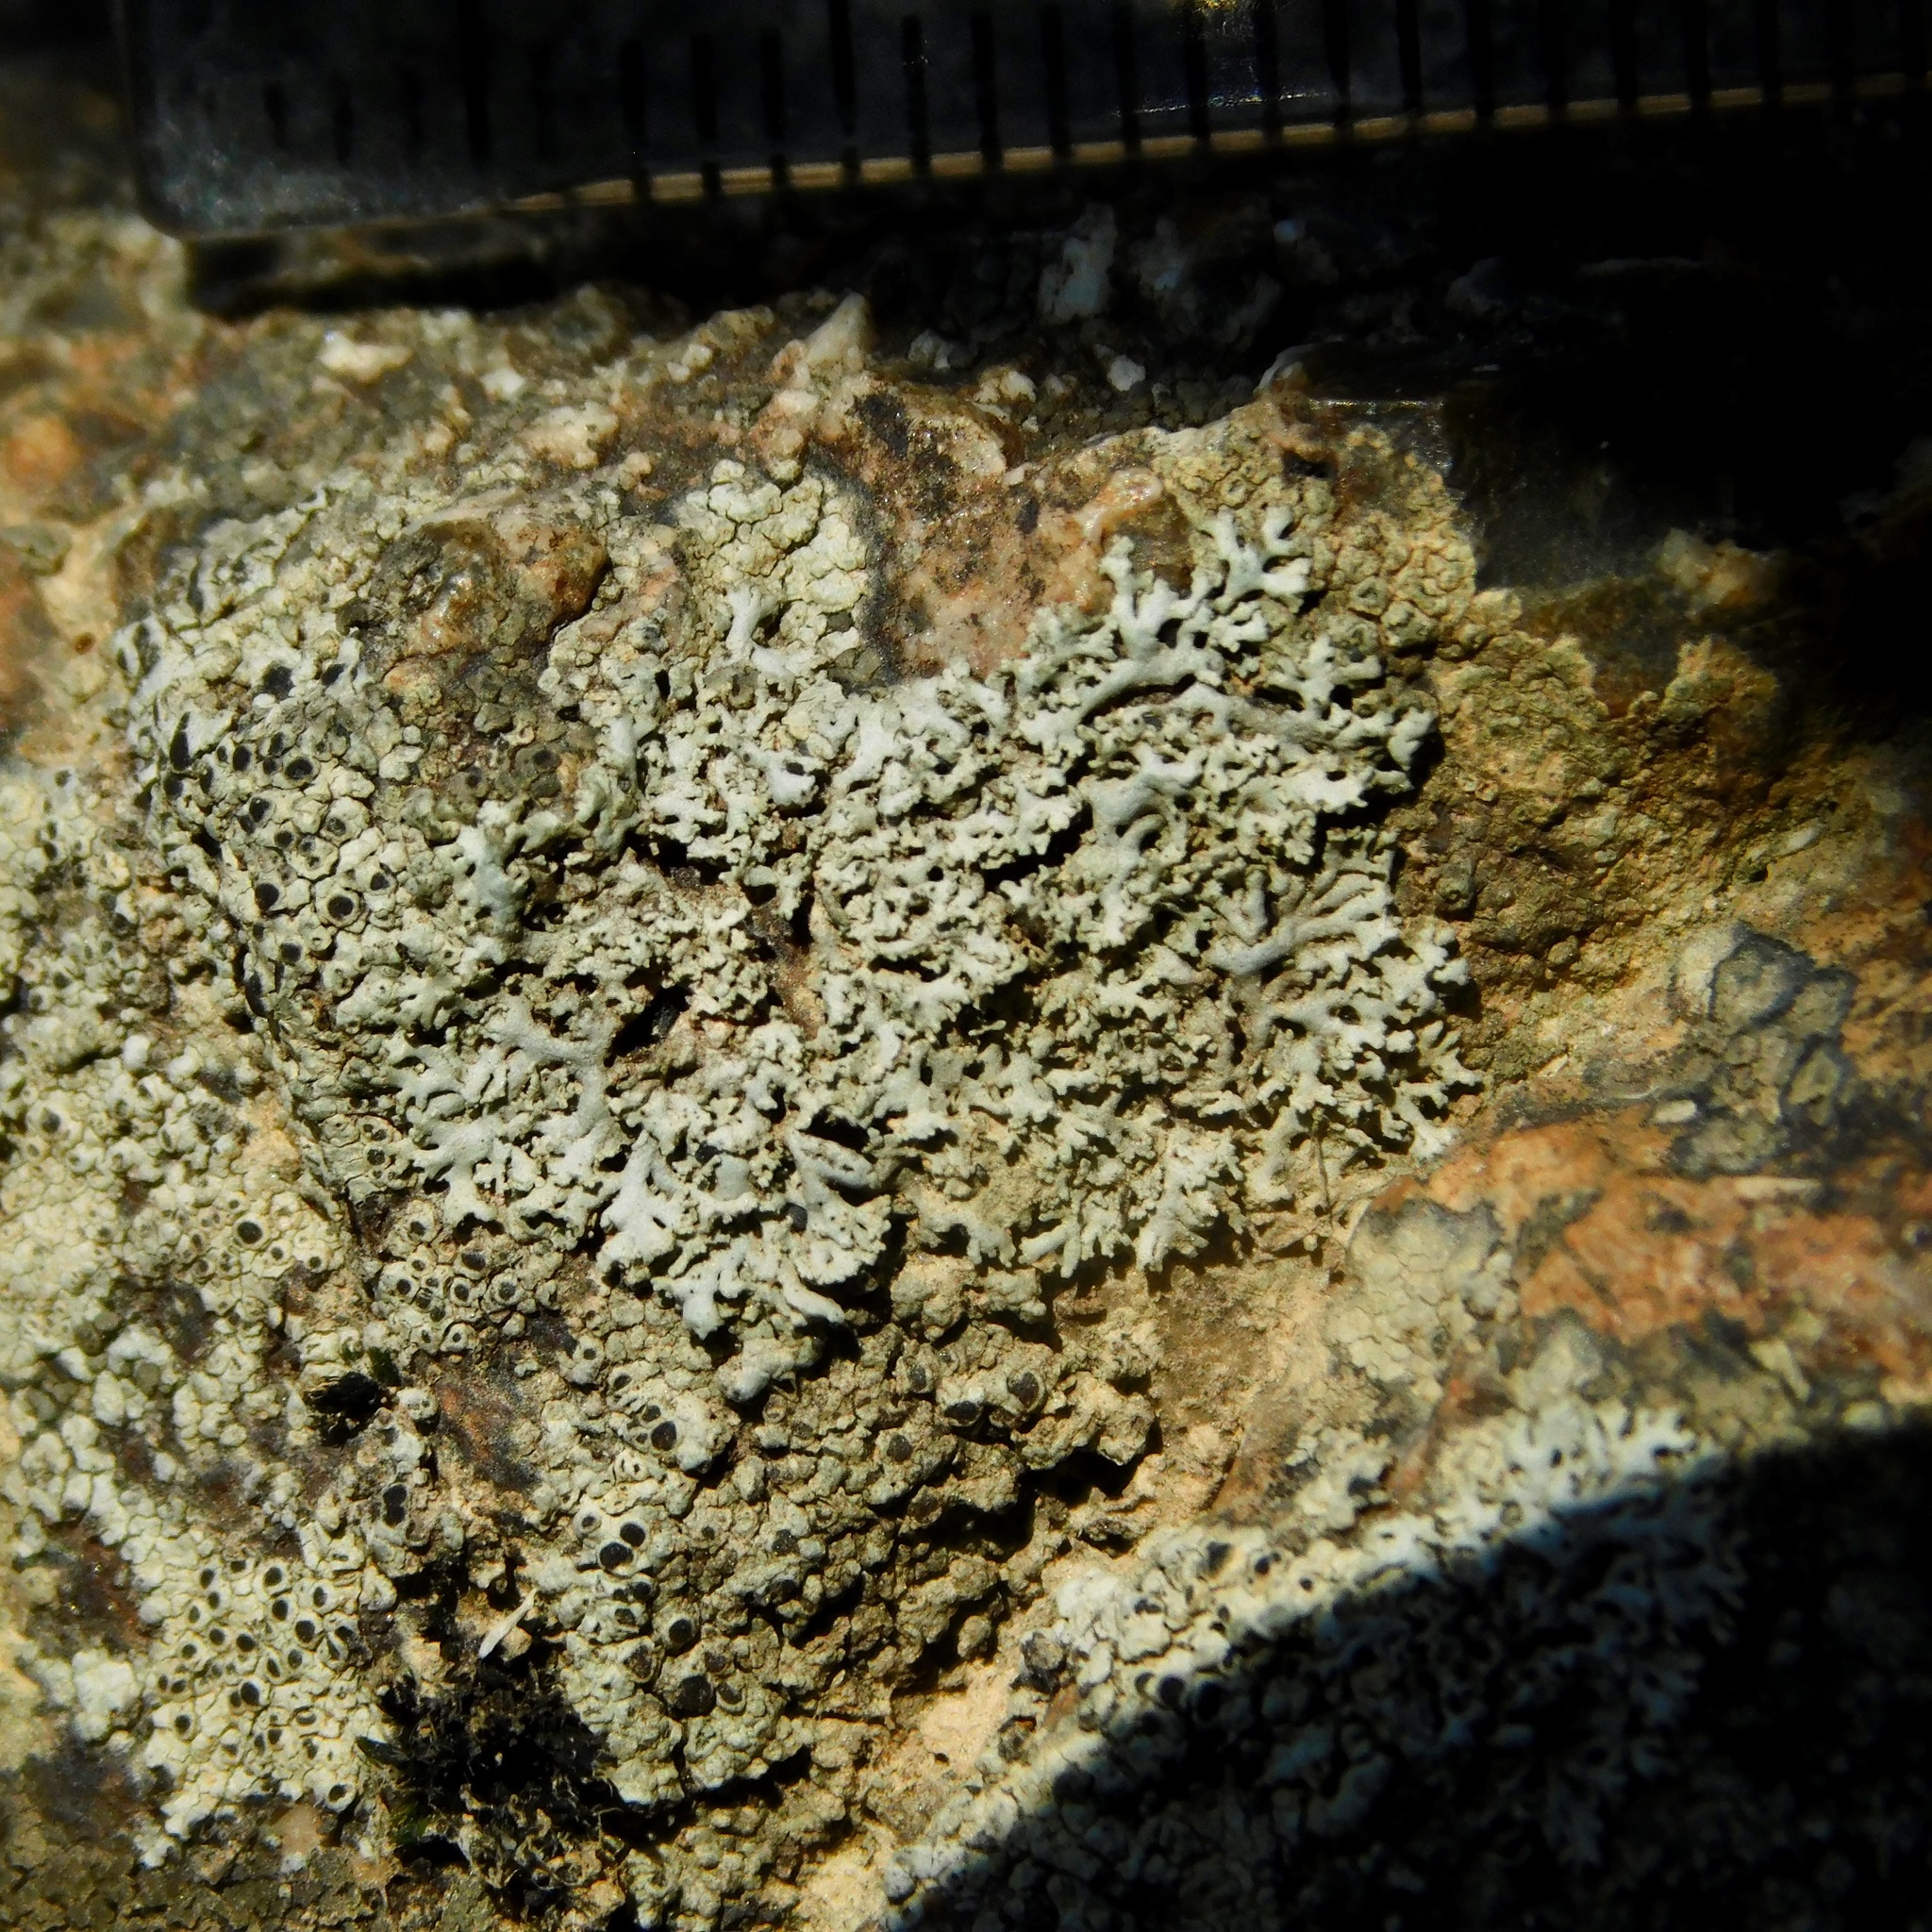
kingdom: Fungi
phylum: Ascomycota
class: Lecanoromycetes
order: Caliciales
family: Physciaceae
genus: Physcia
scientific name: Physcia thomsoniana
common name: Thomson's rosette lichen
